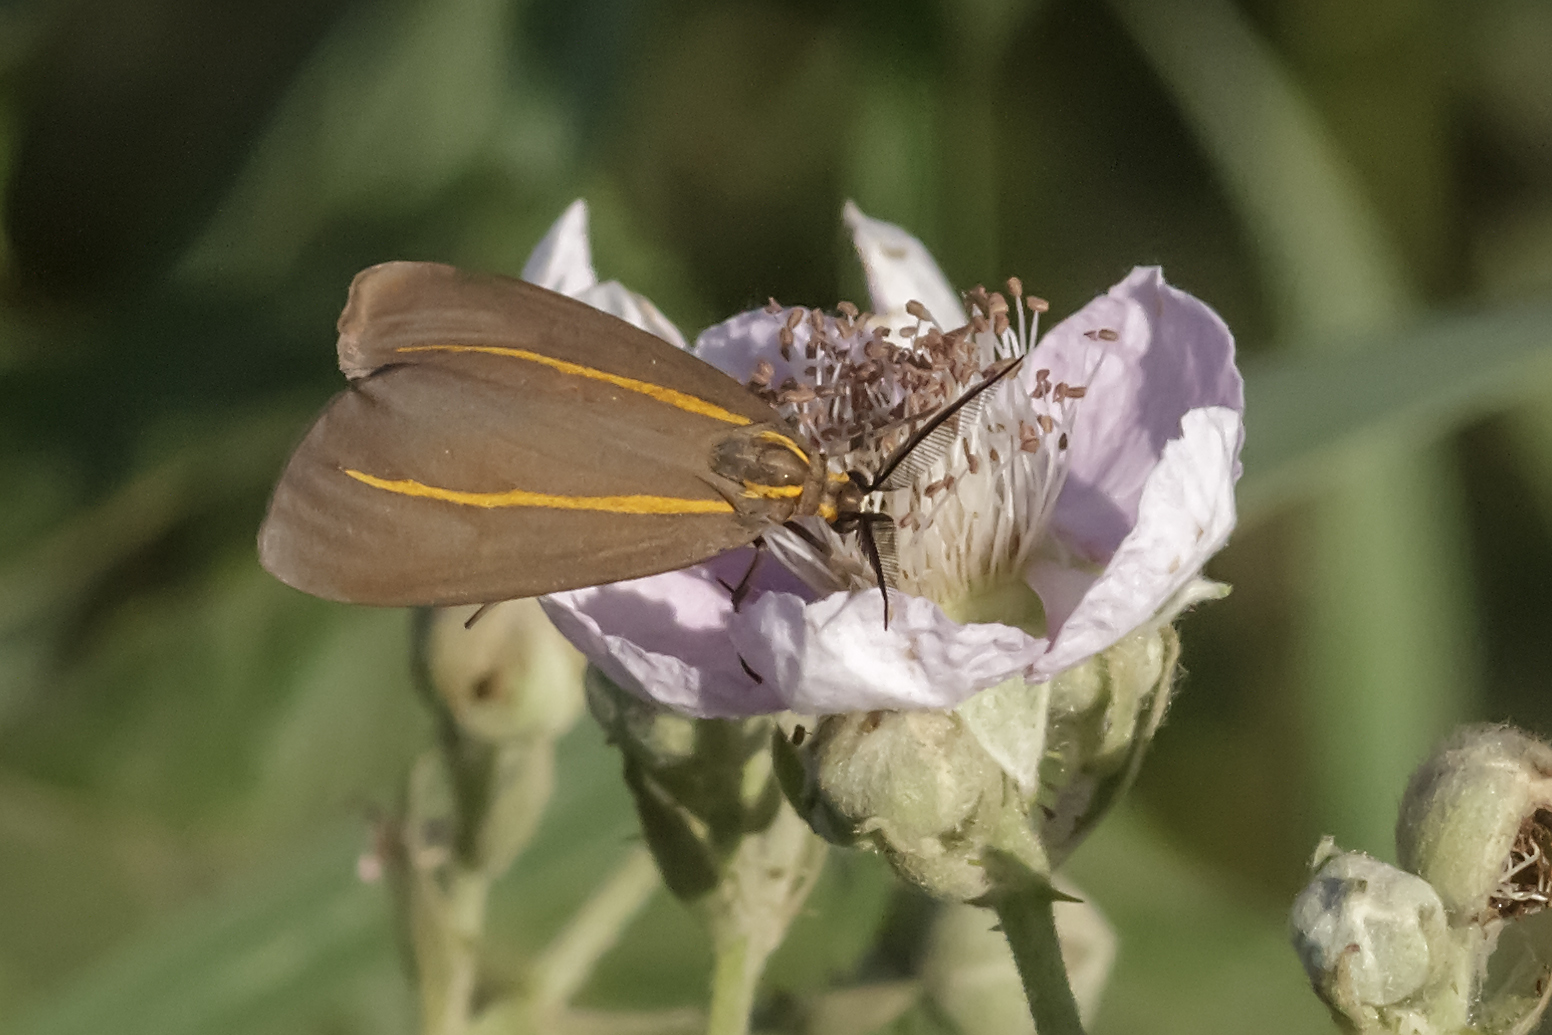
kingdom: Animalia
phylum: Arthropoda
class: Insecta
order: Lepidoptera
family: Notodontidae
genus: Josia
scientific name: Josia mononeura
